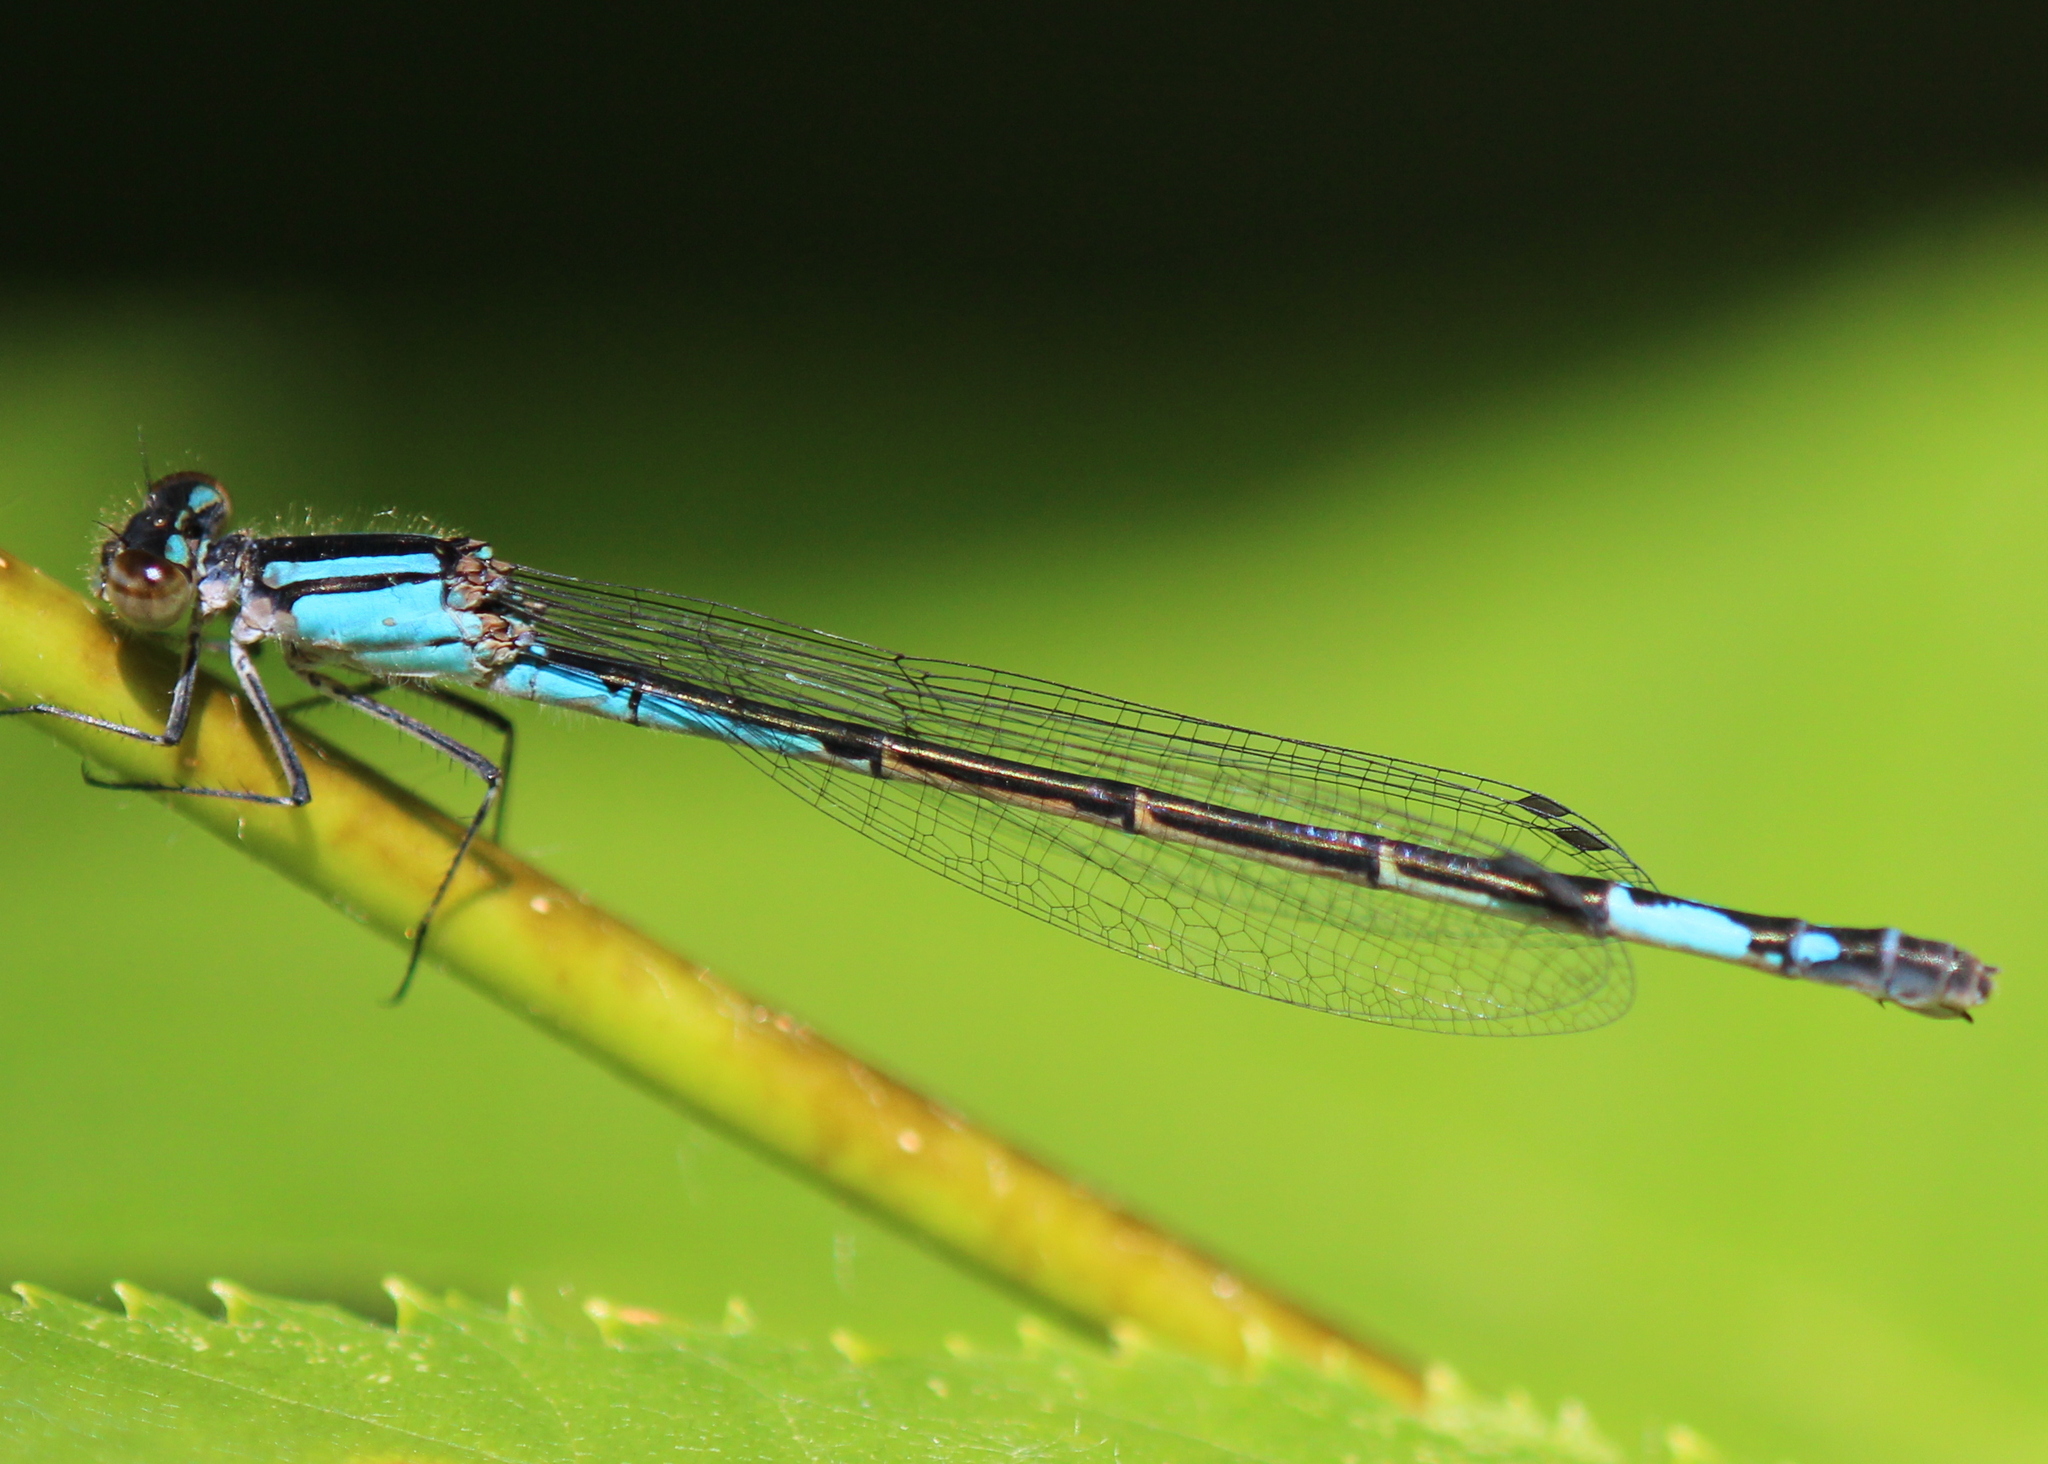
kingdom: Animalia
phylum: Arthropoda
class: Insecta
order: Odonata
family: Coenagrionidae
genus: Enallagma
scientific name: Enallagma aspersum
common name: Azure bluet
